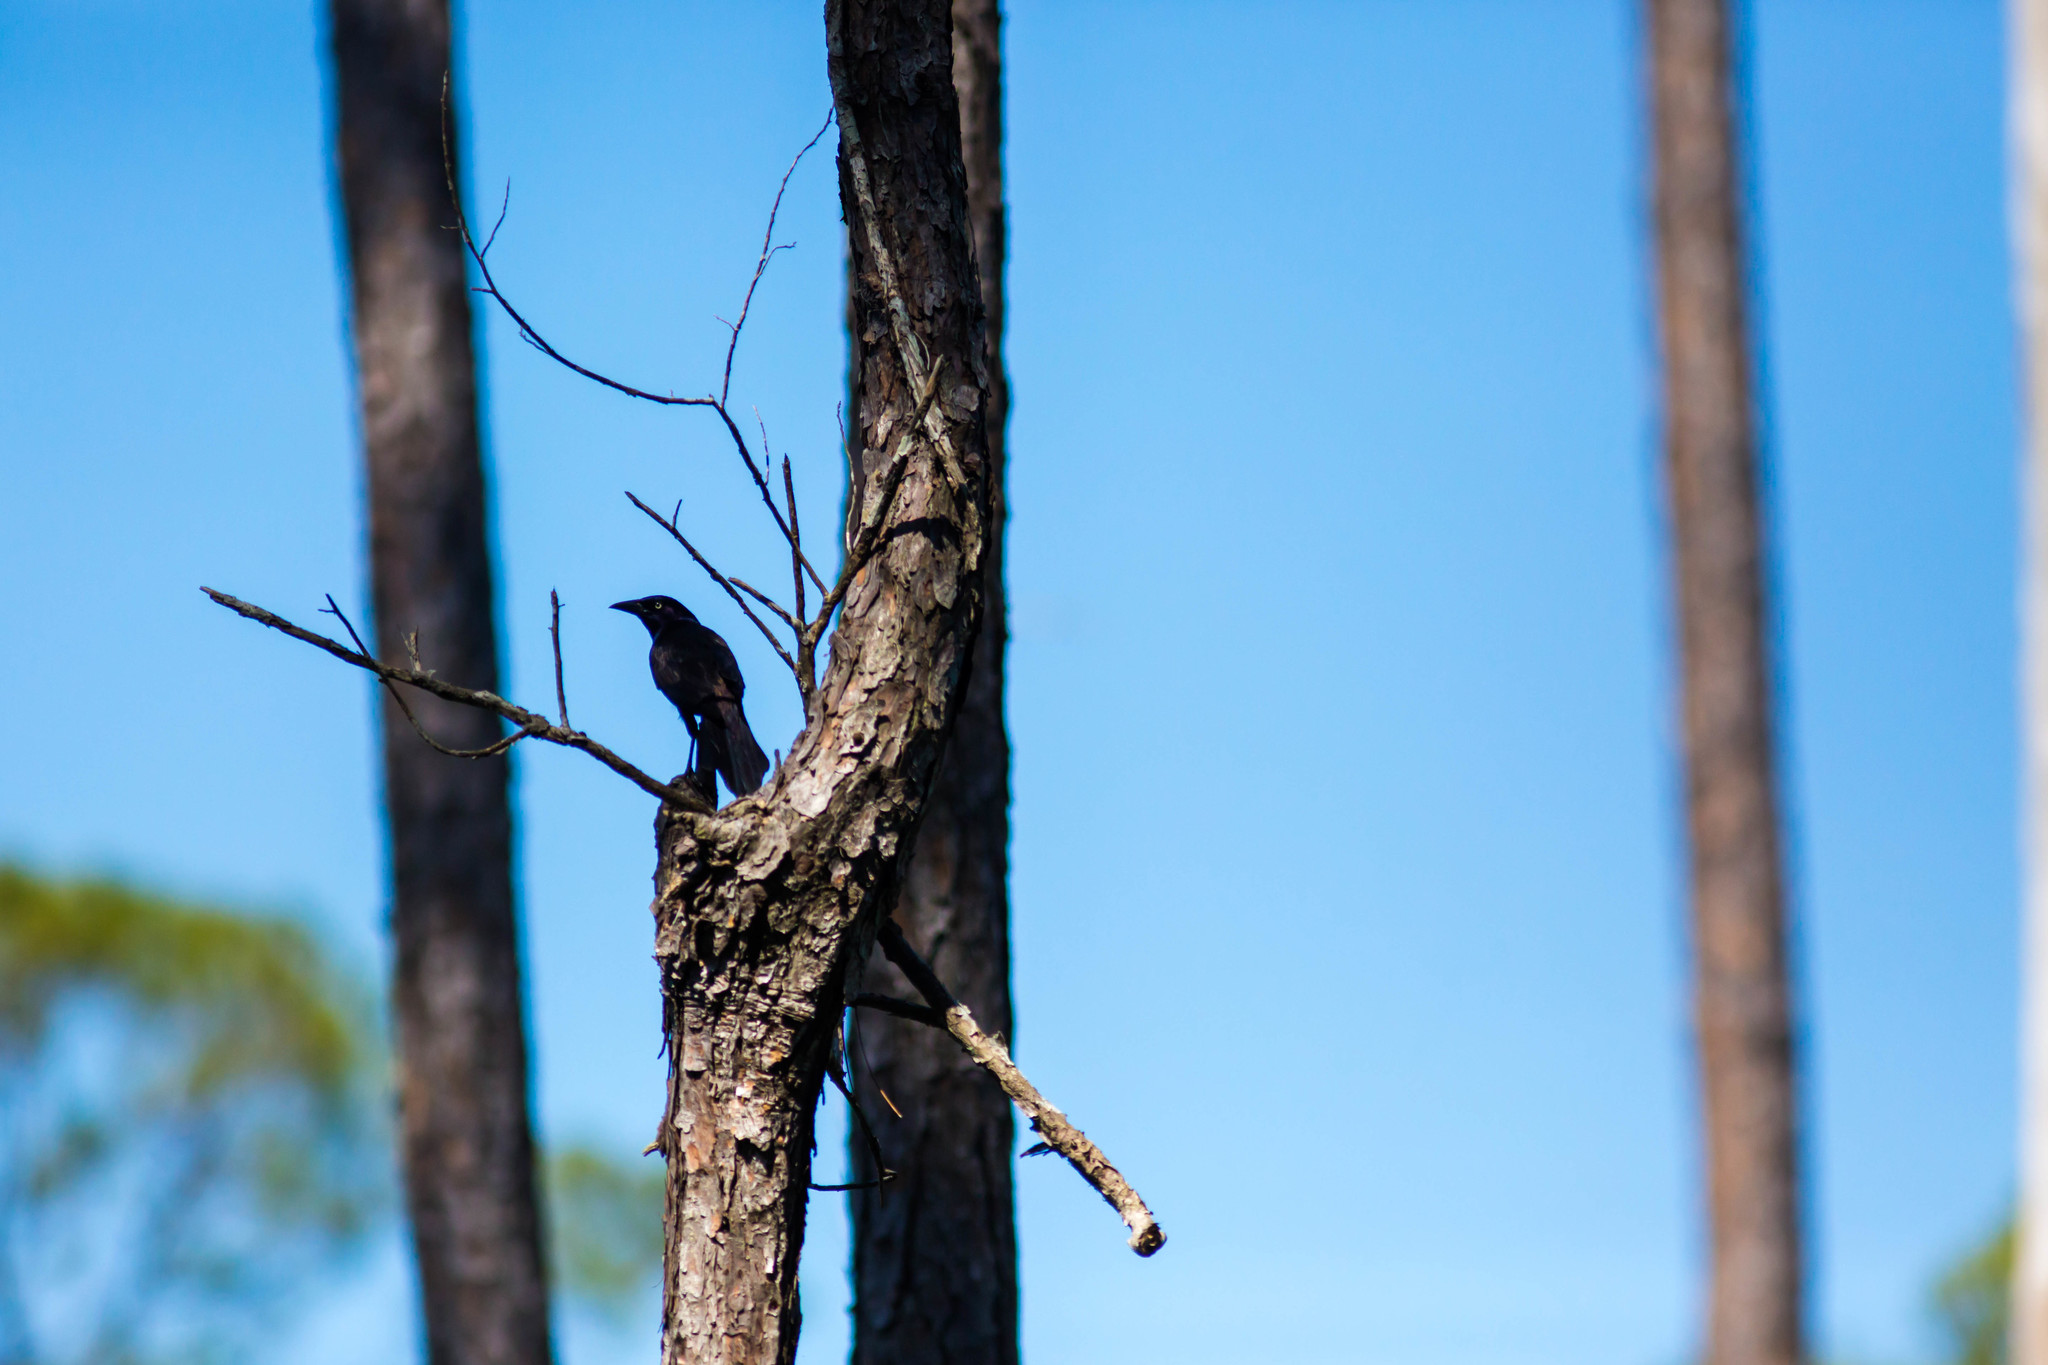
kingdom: Animalia
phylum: Chordata
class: Aves
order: Passeriformes
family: Icteridae
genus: Quiscalus
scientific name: Quiscalus quiscula
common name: Common grackle
